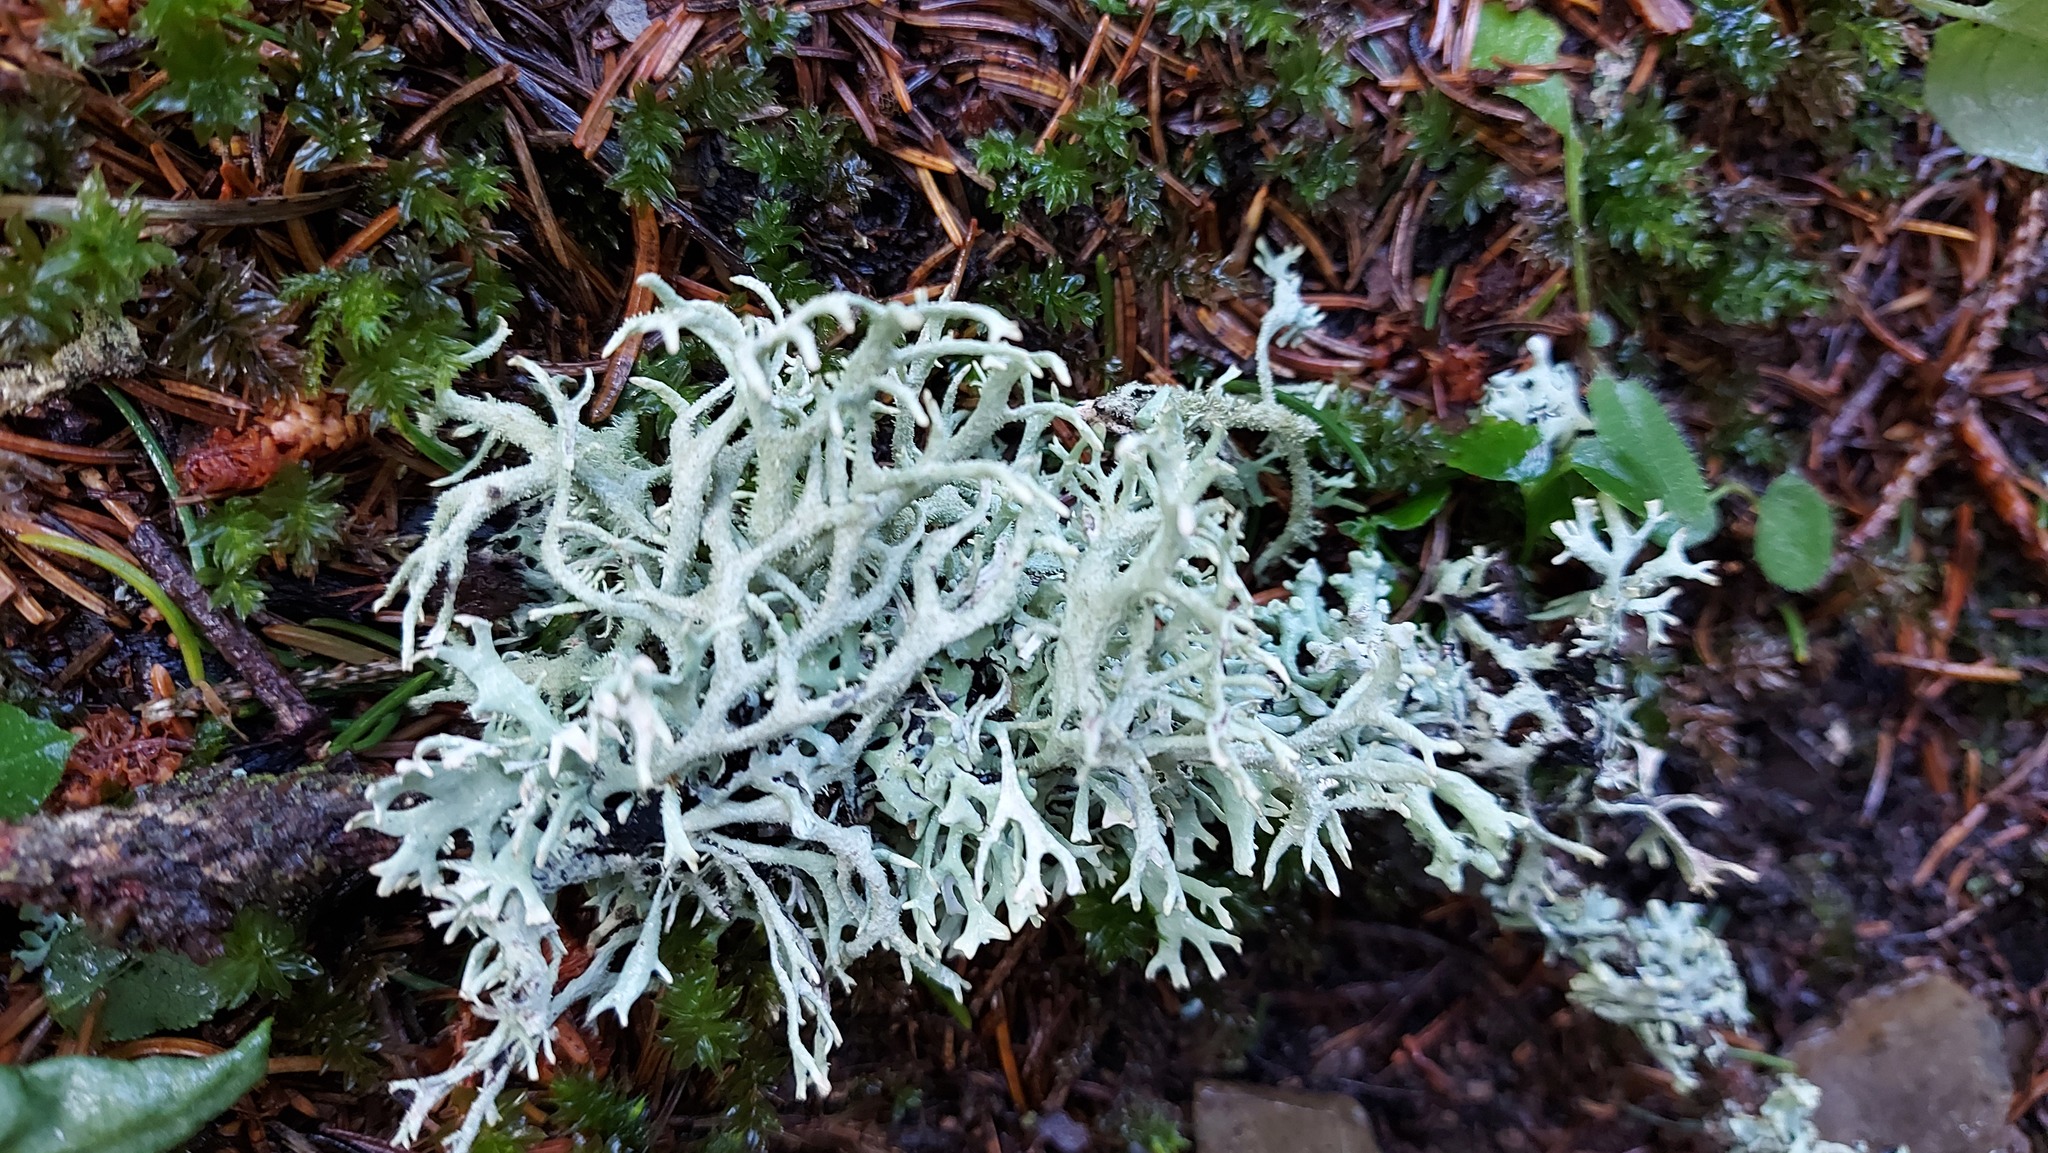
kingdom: Fungi
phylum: Ascomycota
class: Lecanoromycetes
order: Lecanorales
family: Parmeliaceae
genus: Pseudevernia
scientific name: Pseudevernia furfuracea
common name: Tree moss
